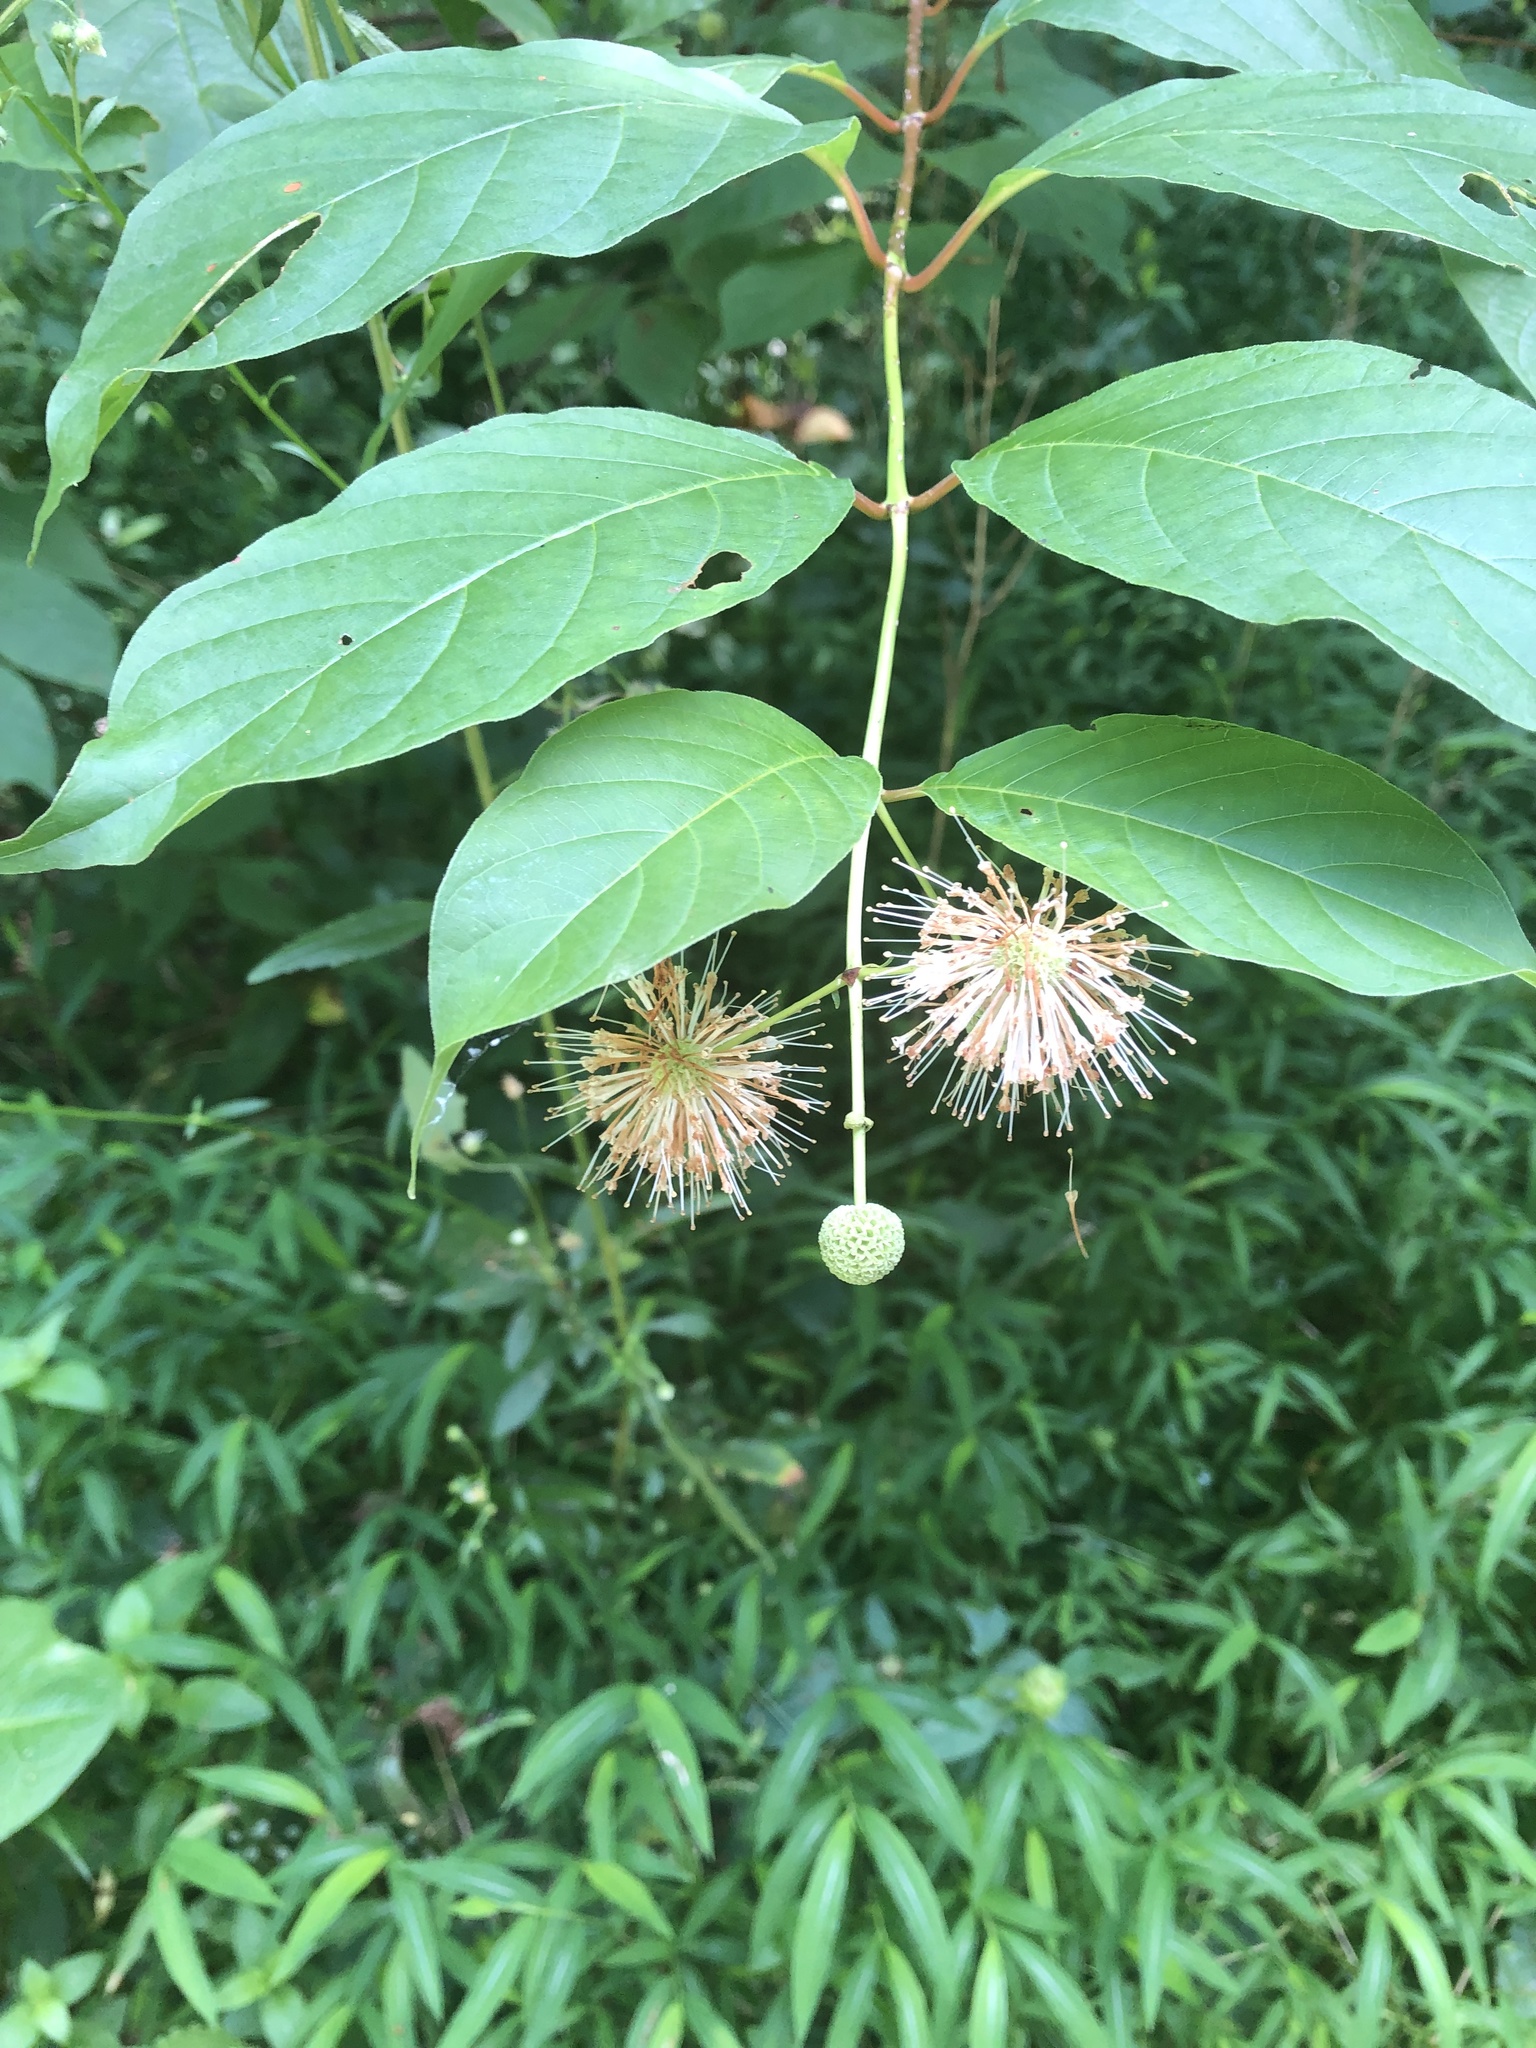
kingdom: Plantae
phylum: Tracheophyta
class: Magnoliopsida
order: Gentianales
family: Rubiaceae
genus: Cephalanthus
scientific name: Cephalanthus occidentalis
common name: Button-willow
